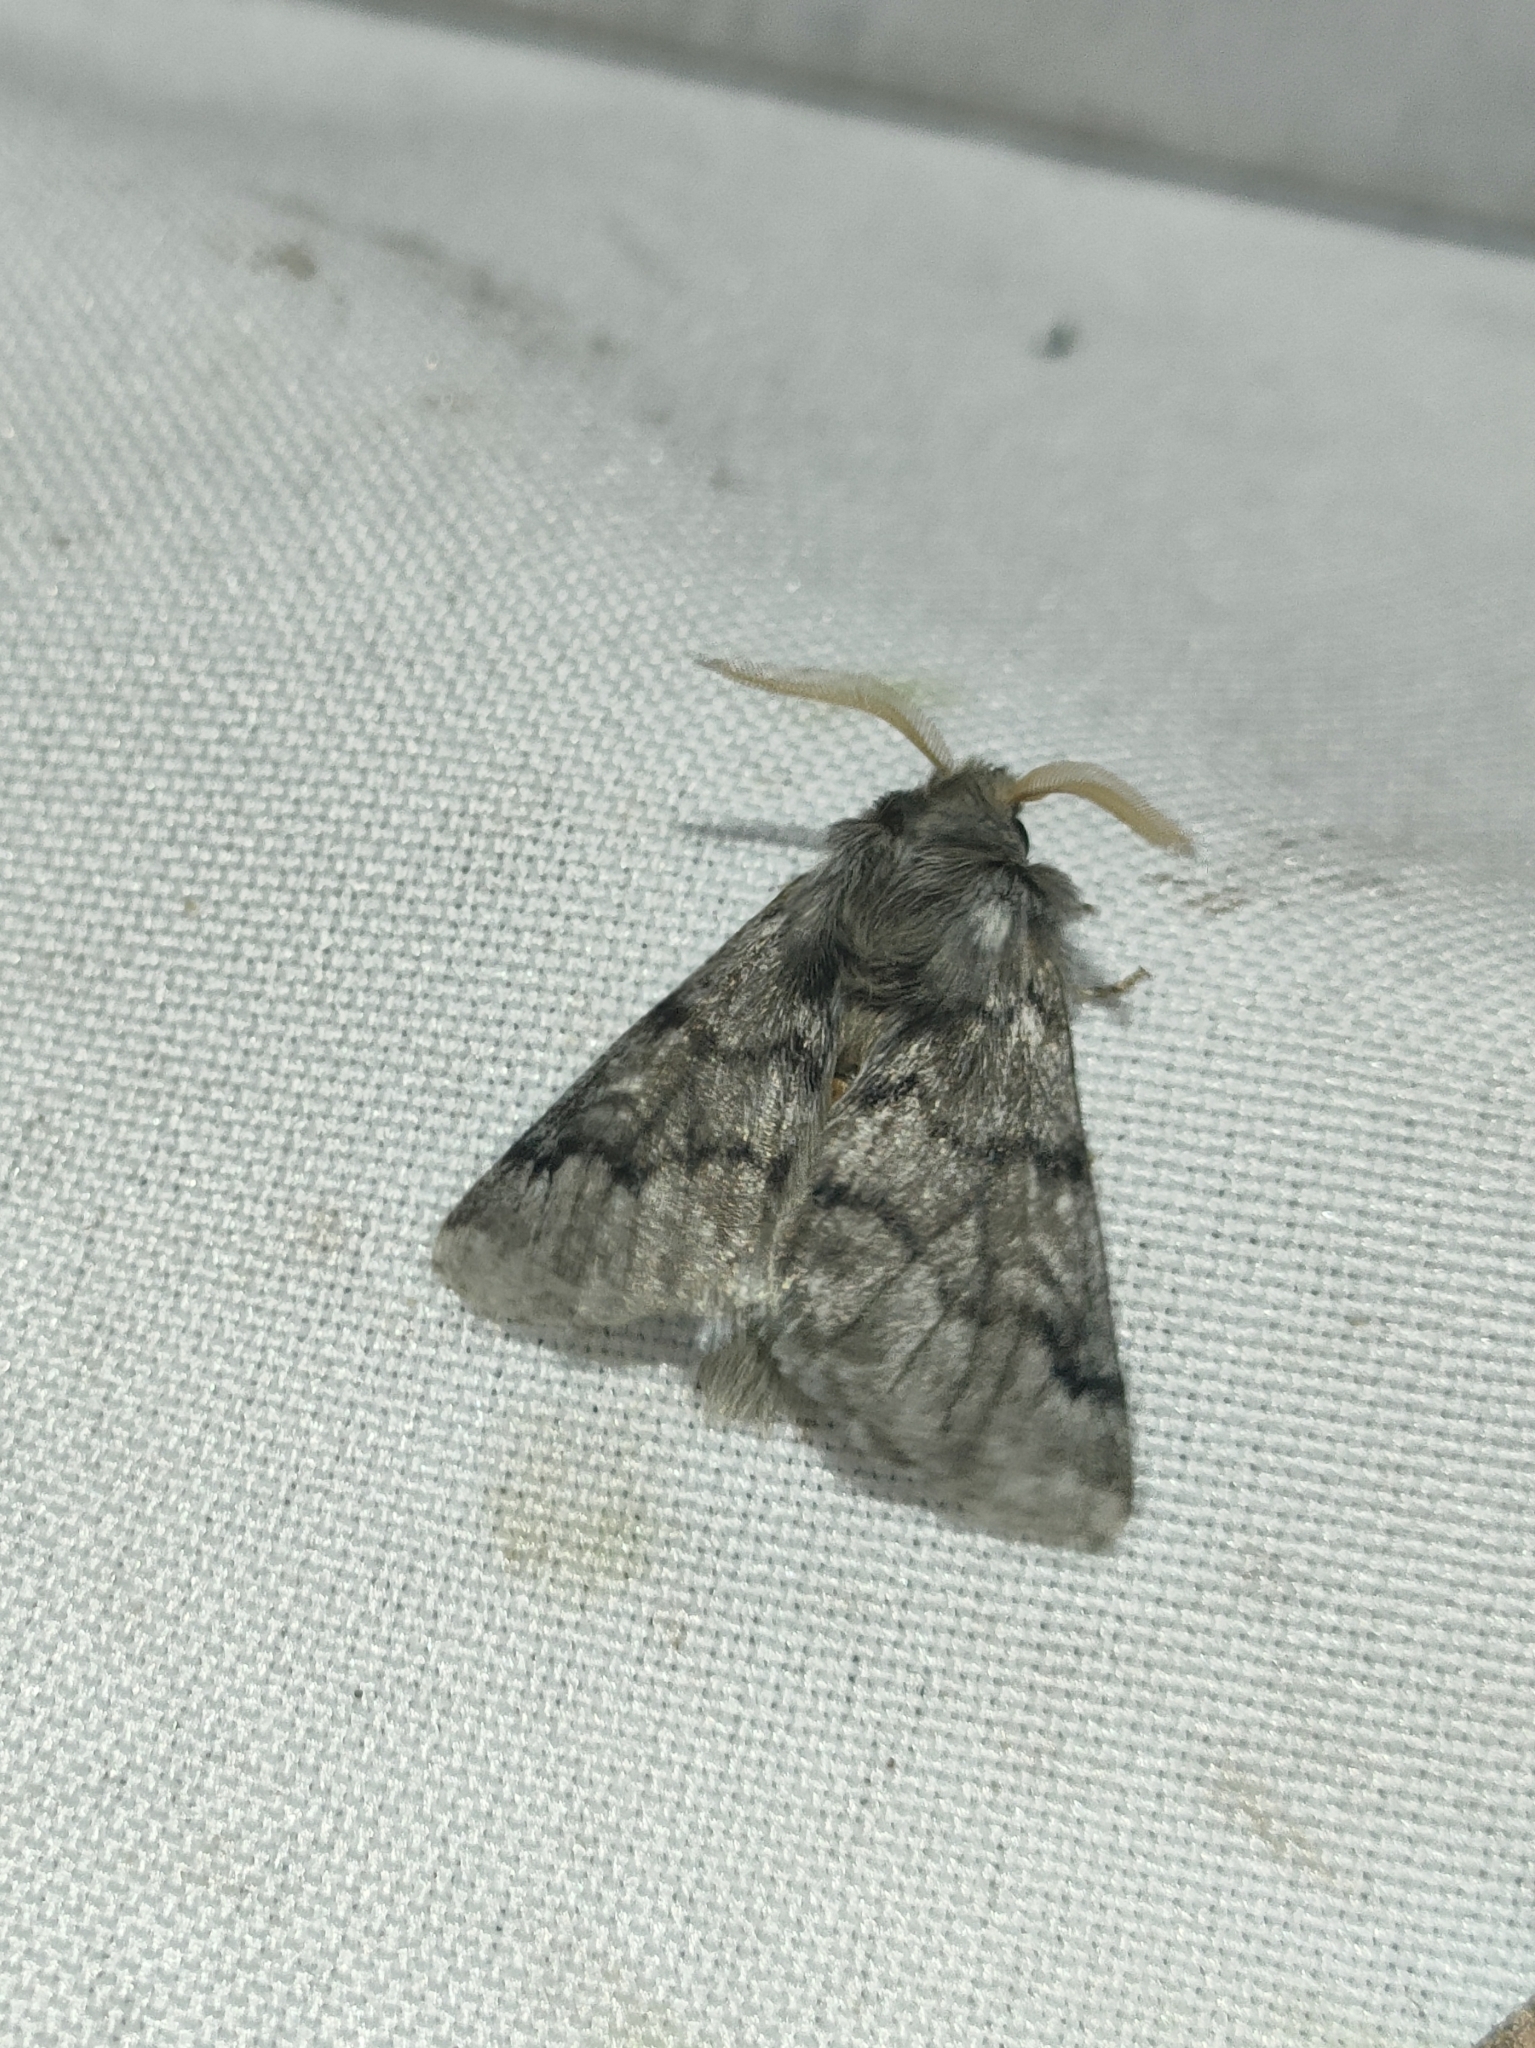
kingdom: Animalia
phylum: Arthropoda
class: Insecta
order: Lepidoptera
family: Notodontidae
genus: Thaumetopoea
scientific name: Thaumetopoea pityocampa
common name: Pine processionary
